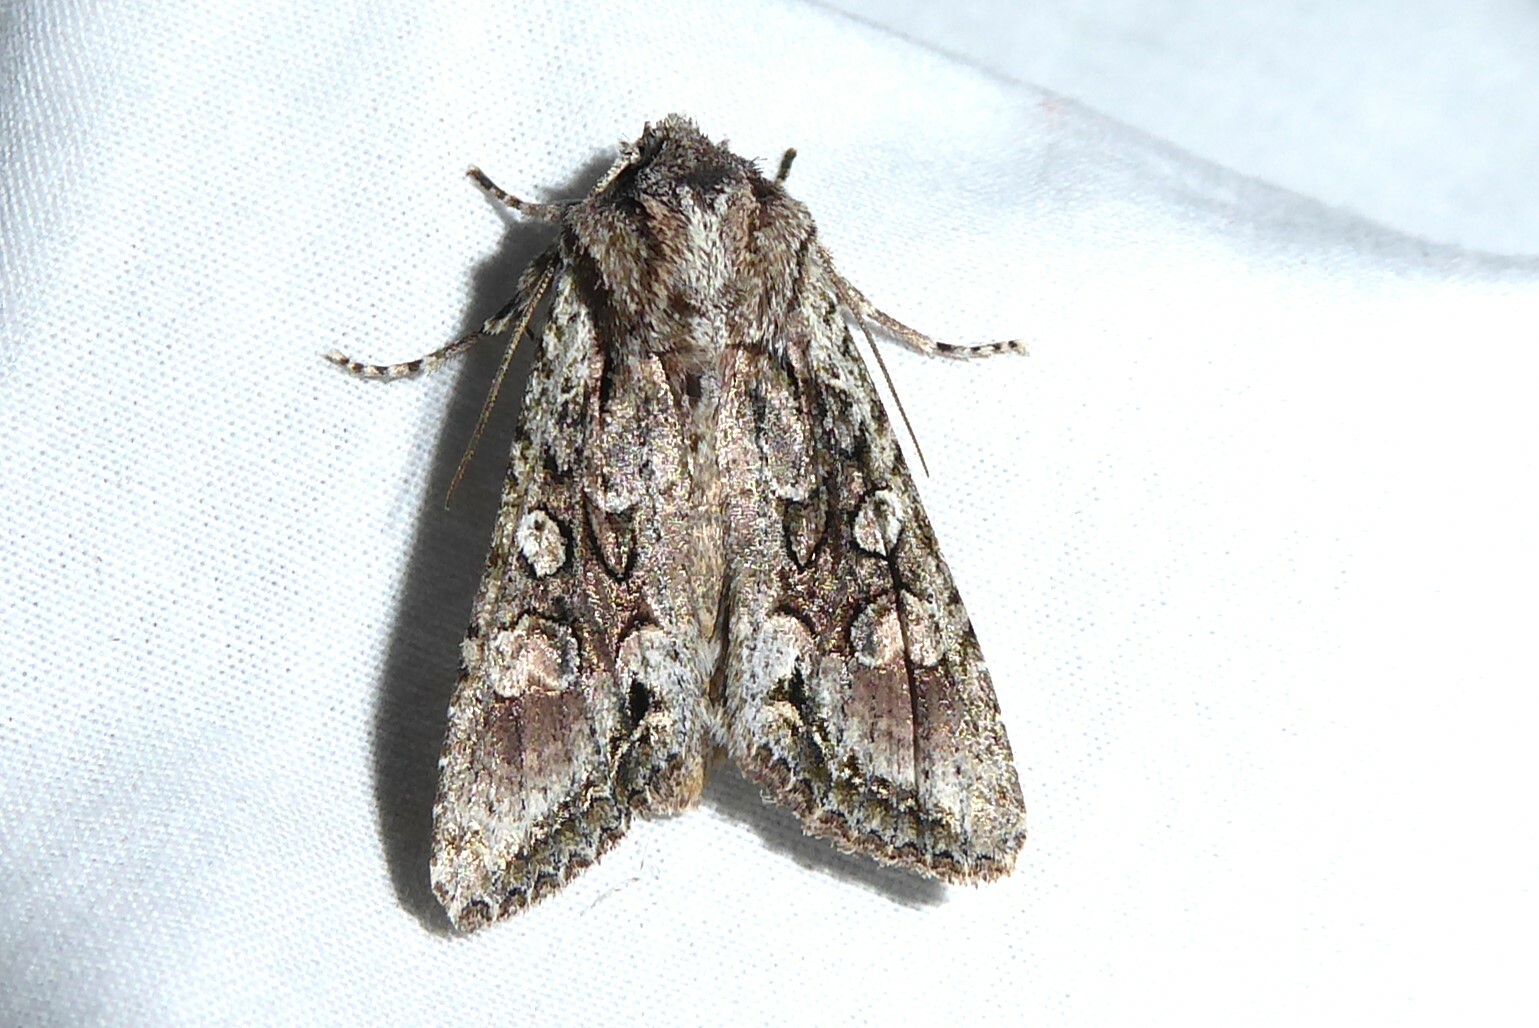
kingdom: Animalia
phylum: Arthropoda
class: Insecta
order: Lepidoptera
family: Noctuidae
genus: Ichneutica
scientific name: Ichneutica mutans
